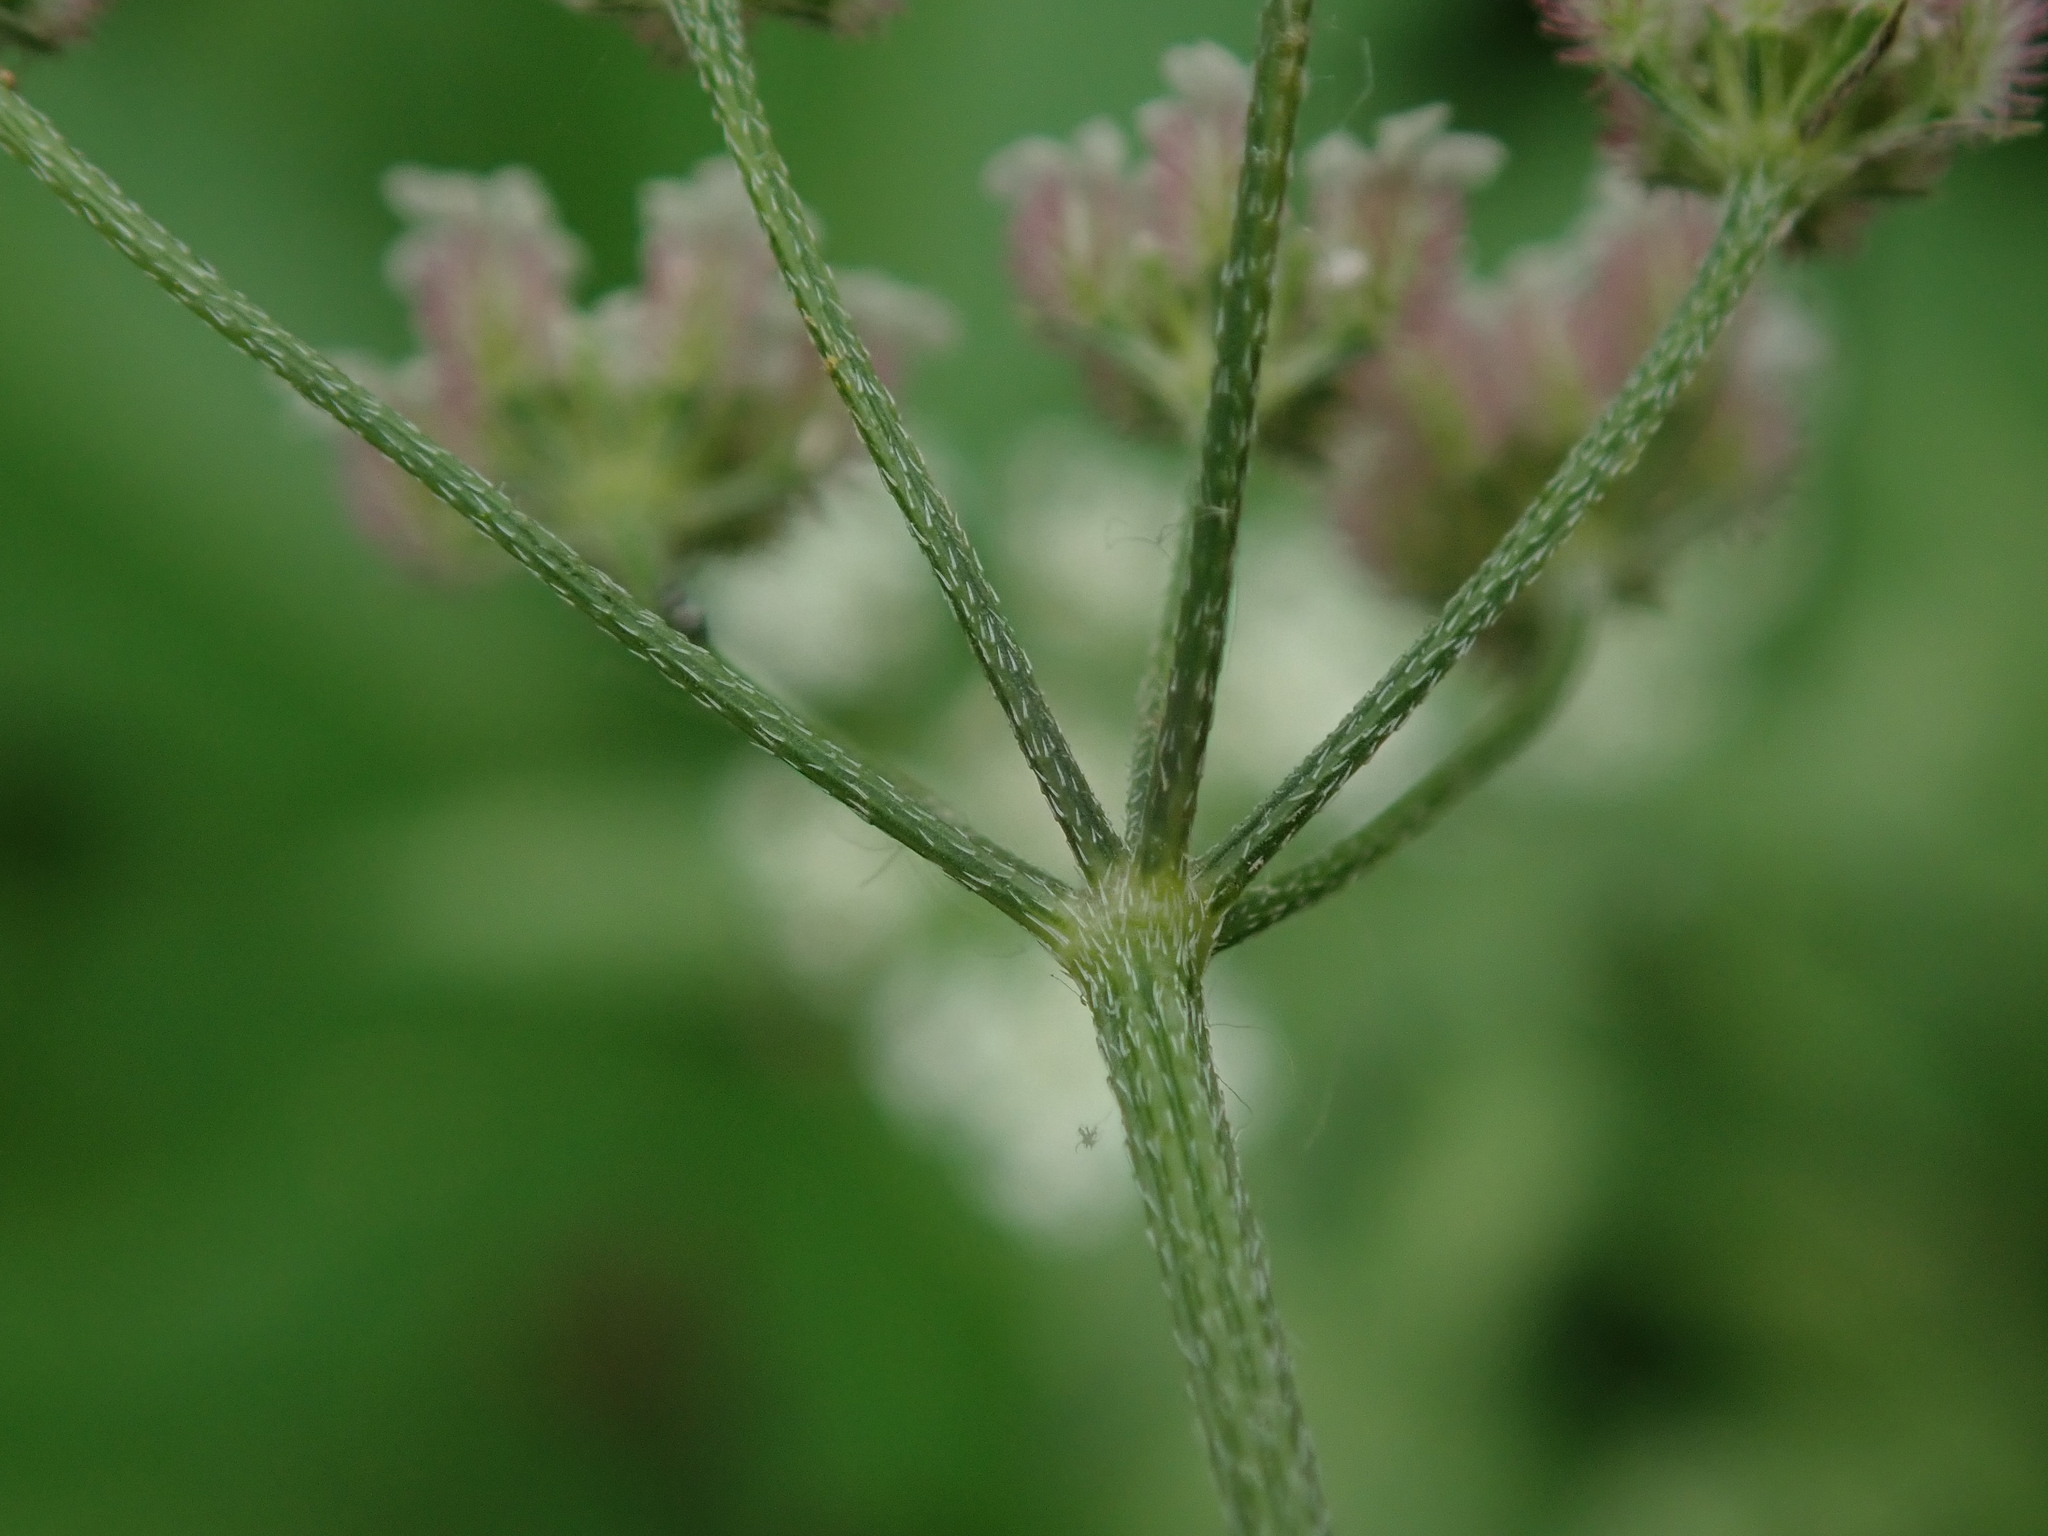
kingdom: Plantae
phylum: Tracheophyta
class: Magnoliopsida
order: Apiales
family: Apiaceae
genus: Torilis
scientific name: Torilis arvensis
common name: Spreading hedge-parsley
